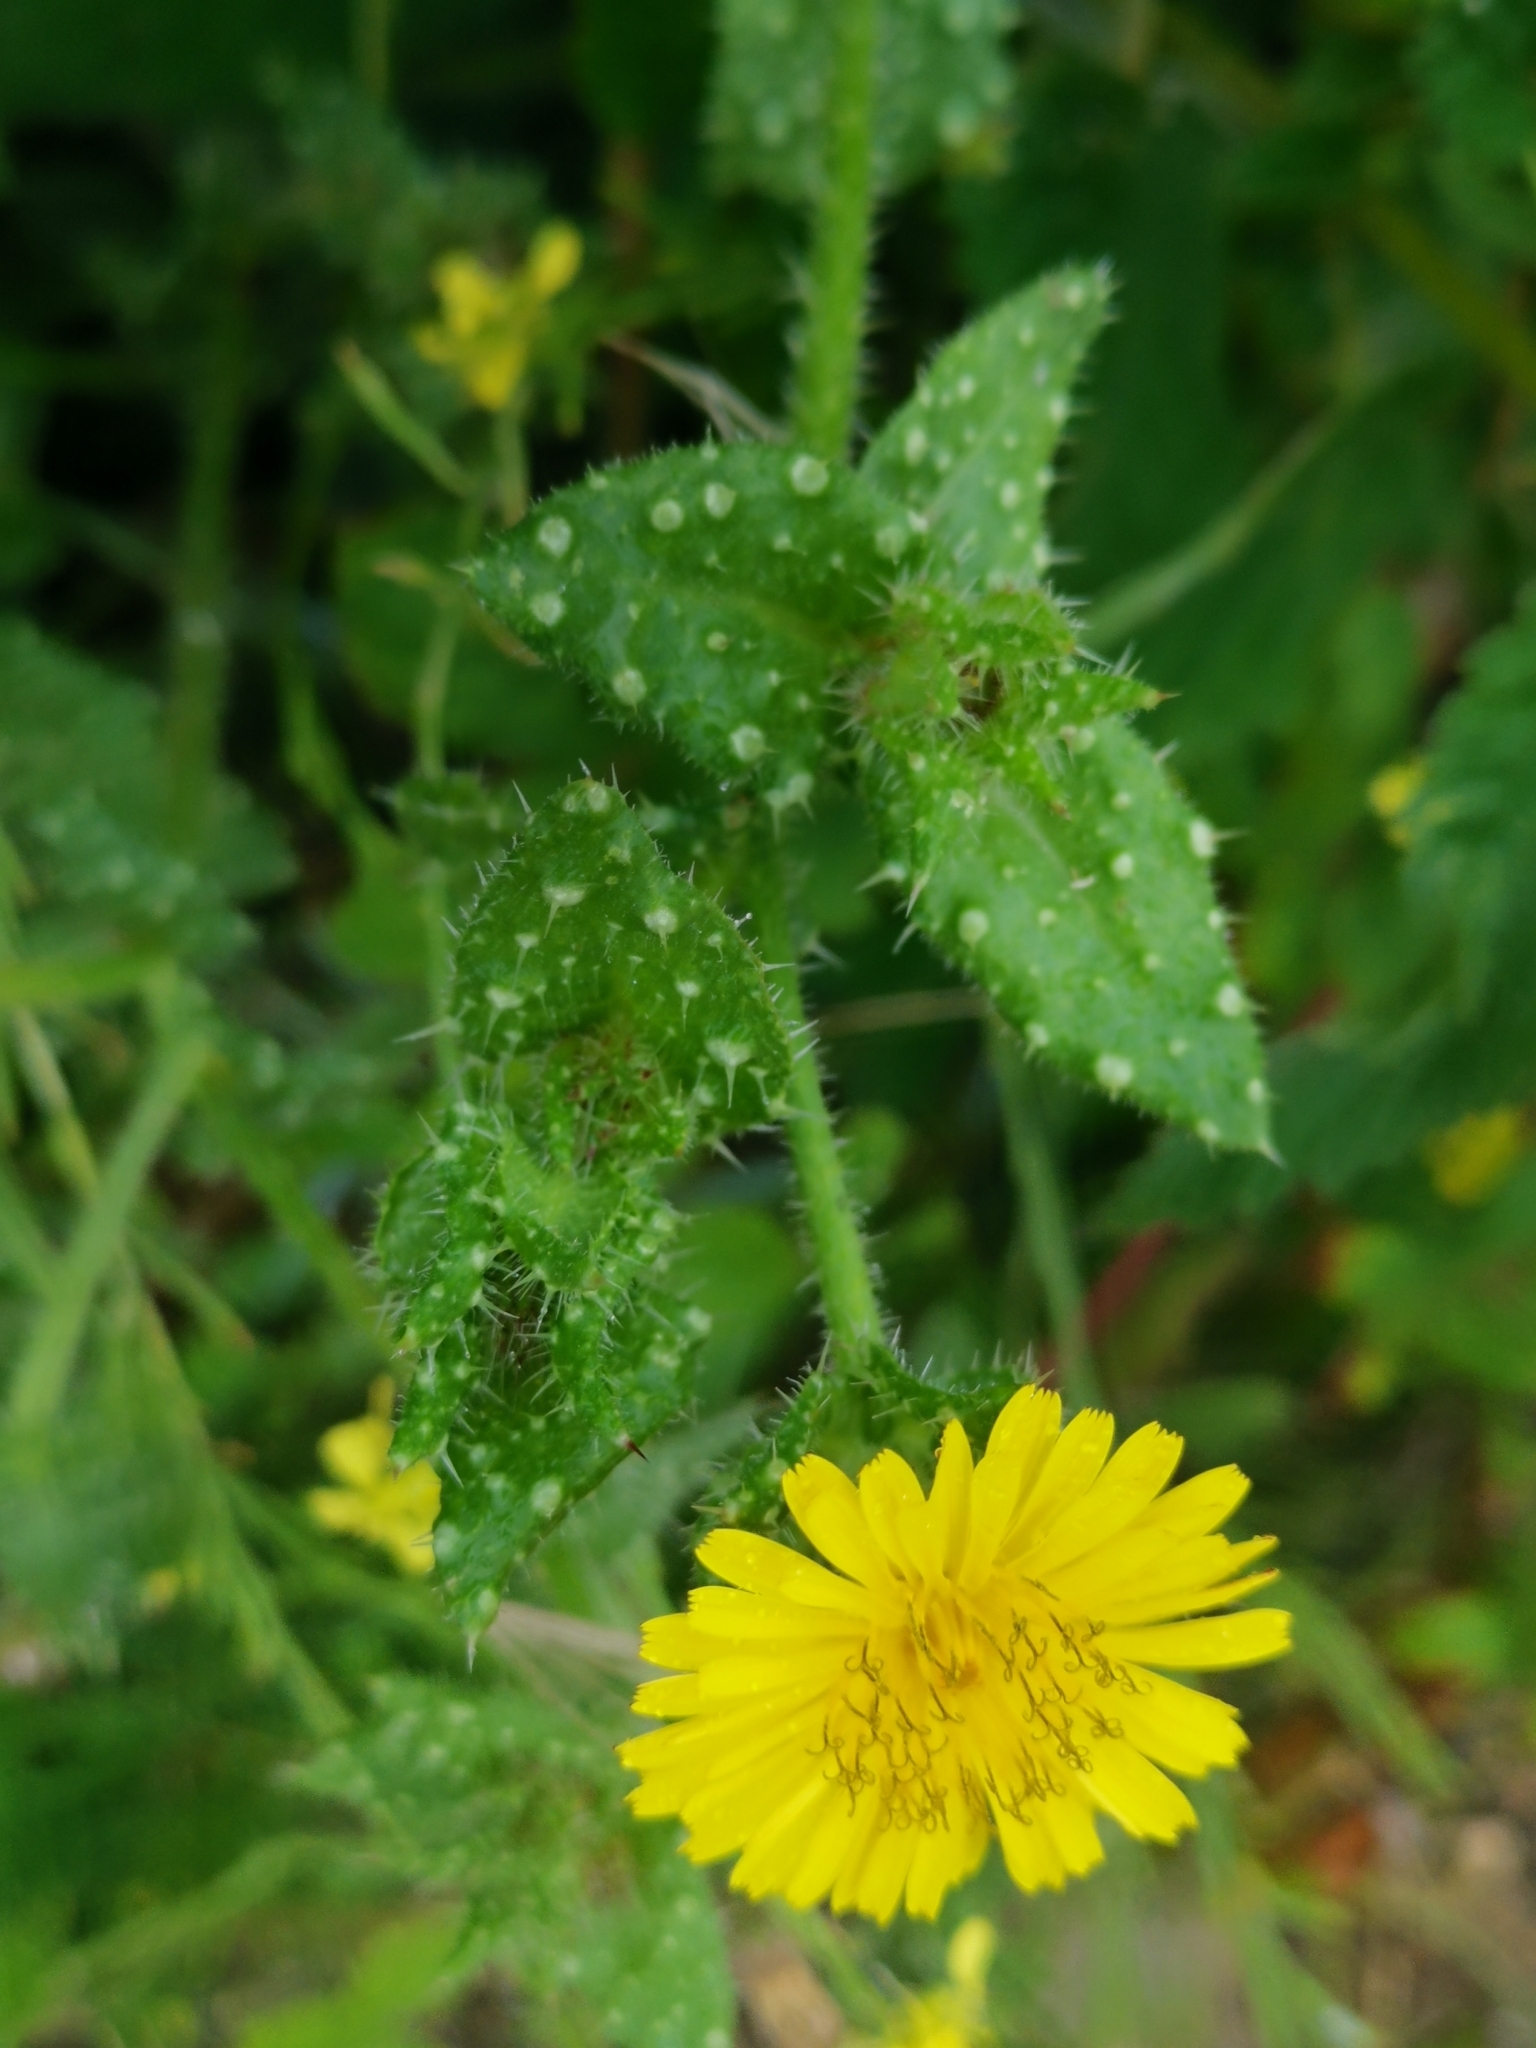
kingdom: Plantae
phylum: Tracheophyta
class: Magnoliopsida
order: Asterales
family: Asteraceae
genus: Helminthotheca
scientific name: Helminthotheca echioides
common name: Ox-tongue
